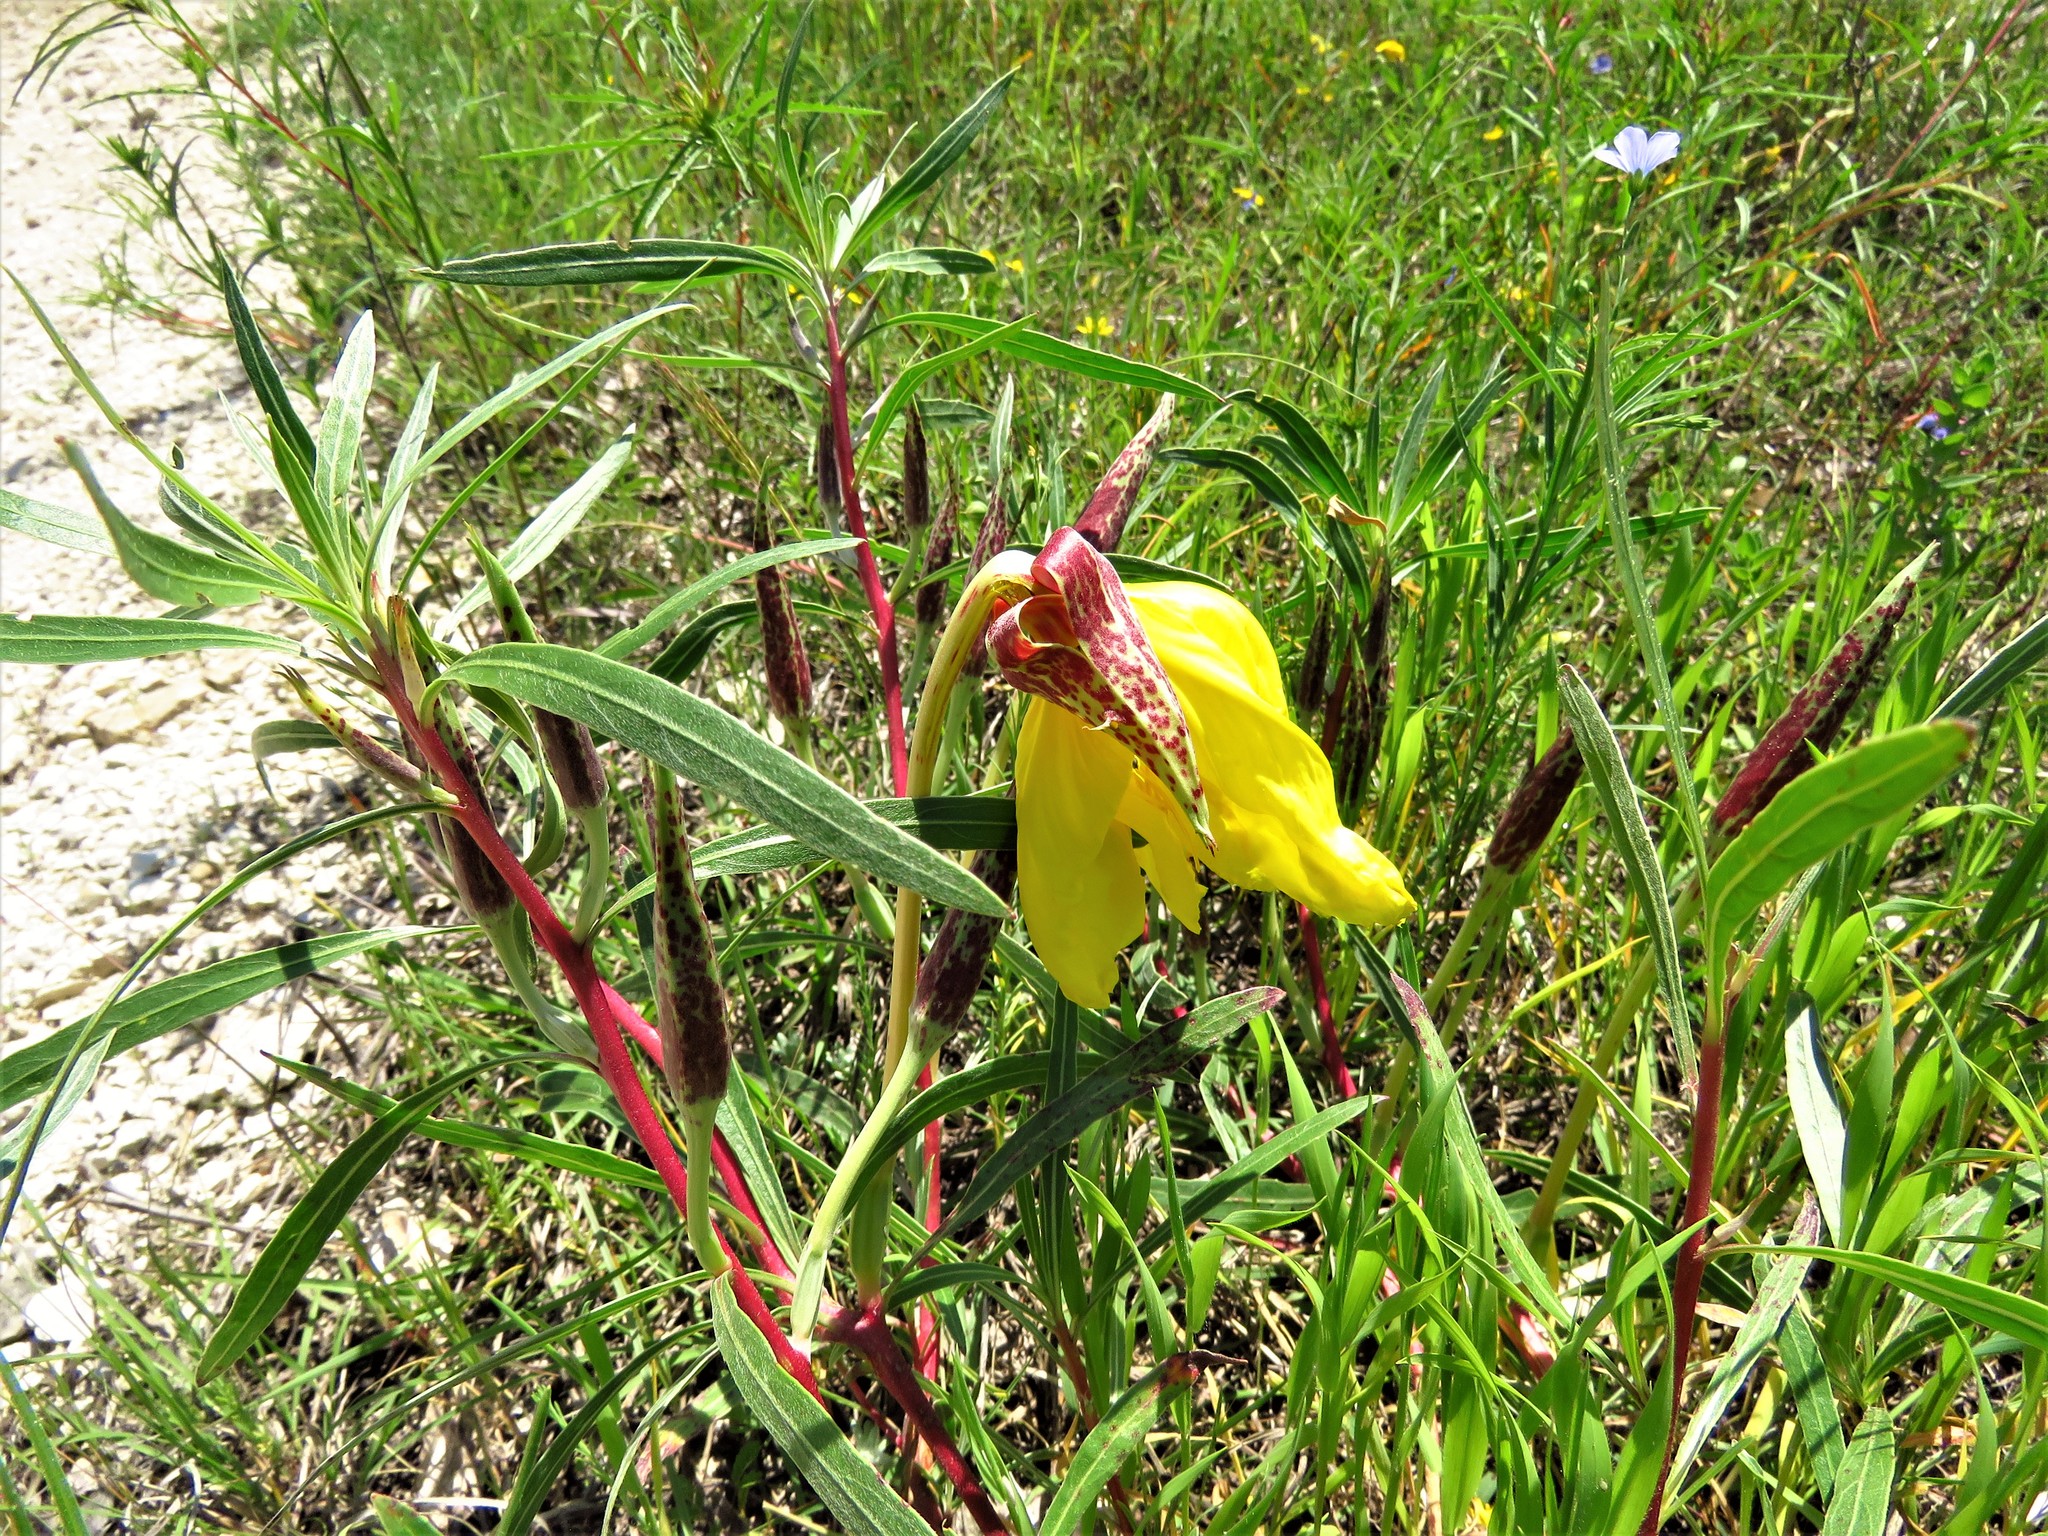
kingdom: Plantae
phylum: Tracheophyta
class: Magnoliopsida
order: Myrtales
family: Onagraceae
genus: Oenothera
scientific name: Oenothera macrocarpa
